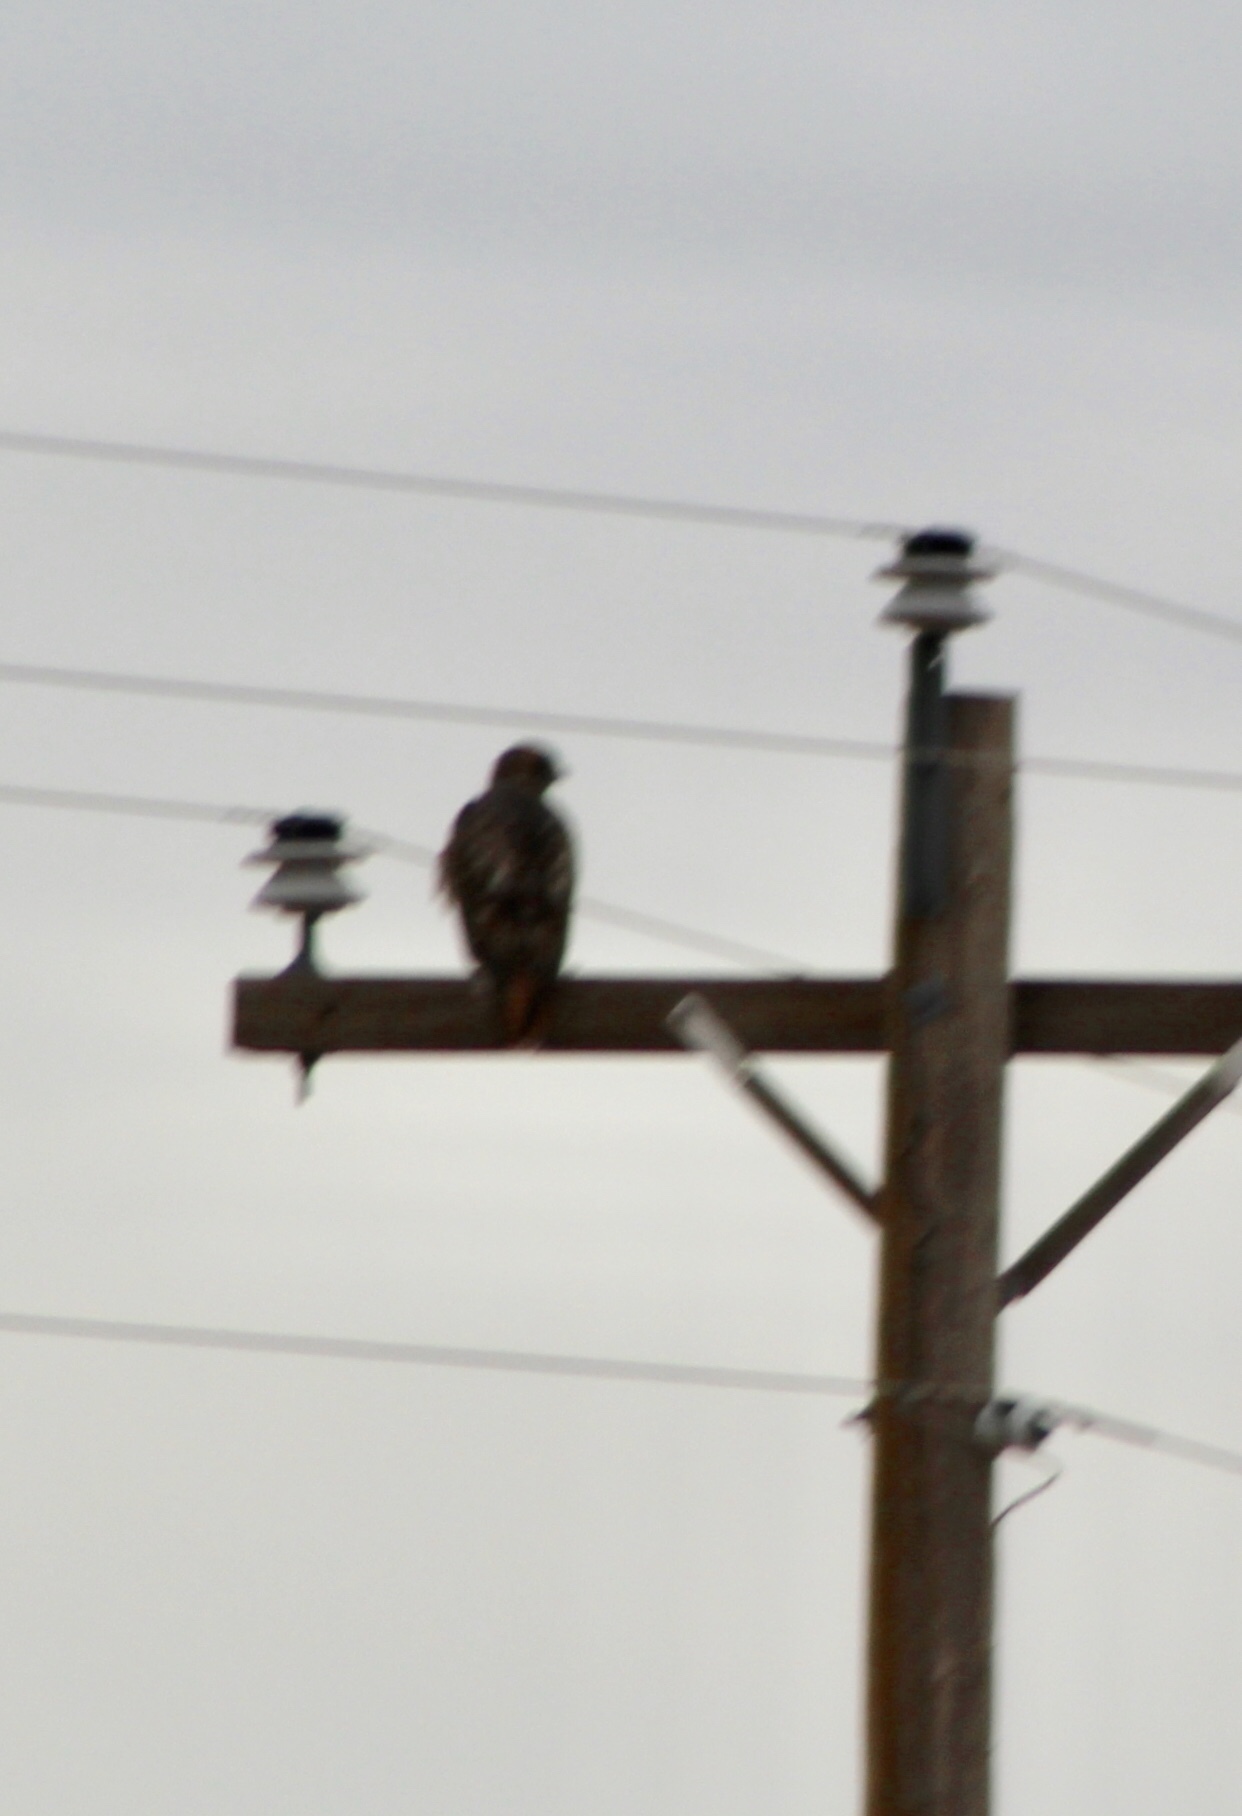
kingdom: Animalia
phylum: Chordata
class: Aves
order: Accipitriformes
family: Accipitridae
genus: Buteo
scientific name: Buteo jamaicensis
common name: Red-tailed hawk
